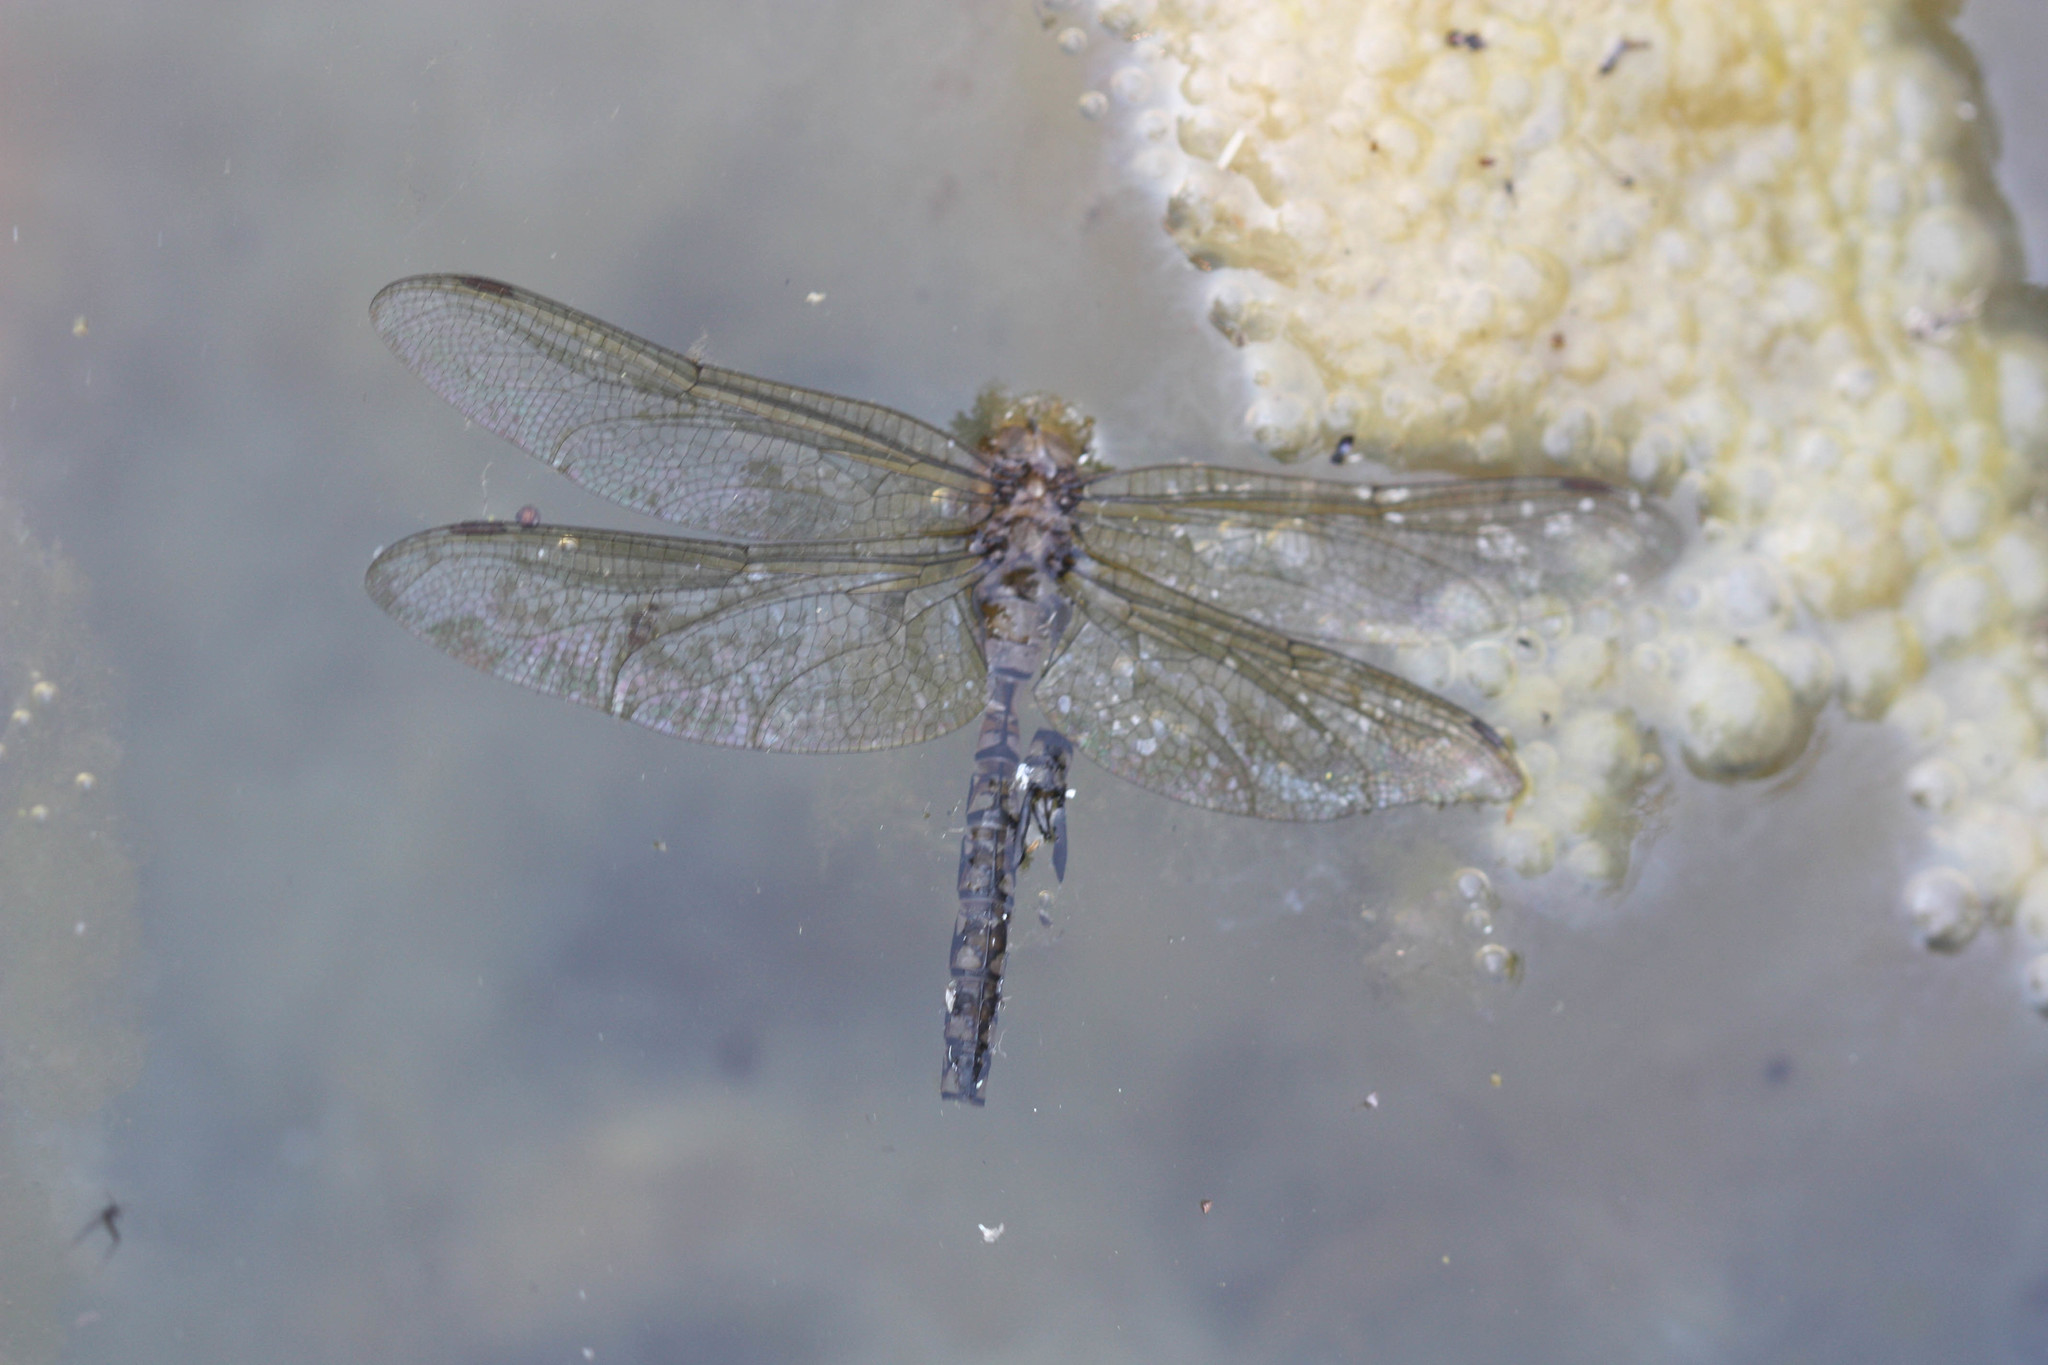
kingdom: Animalia
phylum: Arthropoda
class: Insecta
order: Odonata
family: Aeshnidae
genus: Rhionaeschna
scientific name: Rhionaeschna multicolor
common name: Blue-eyed darner
